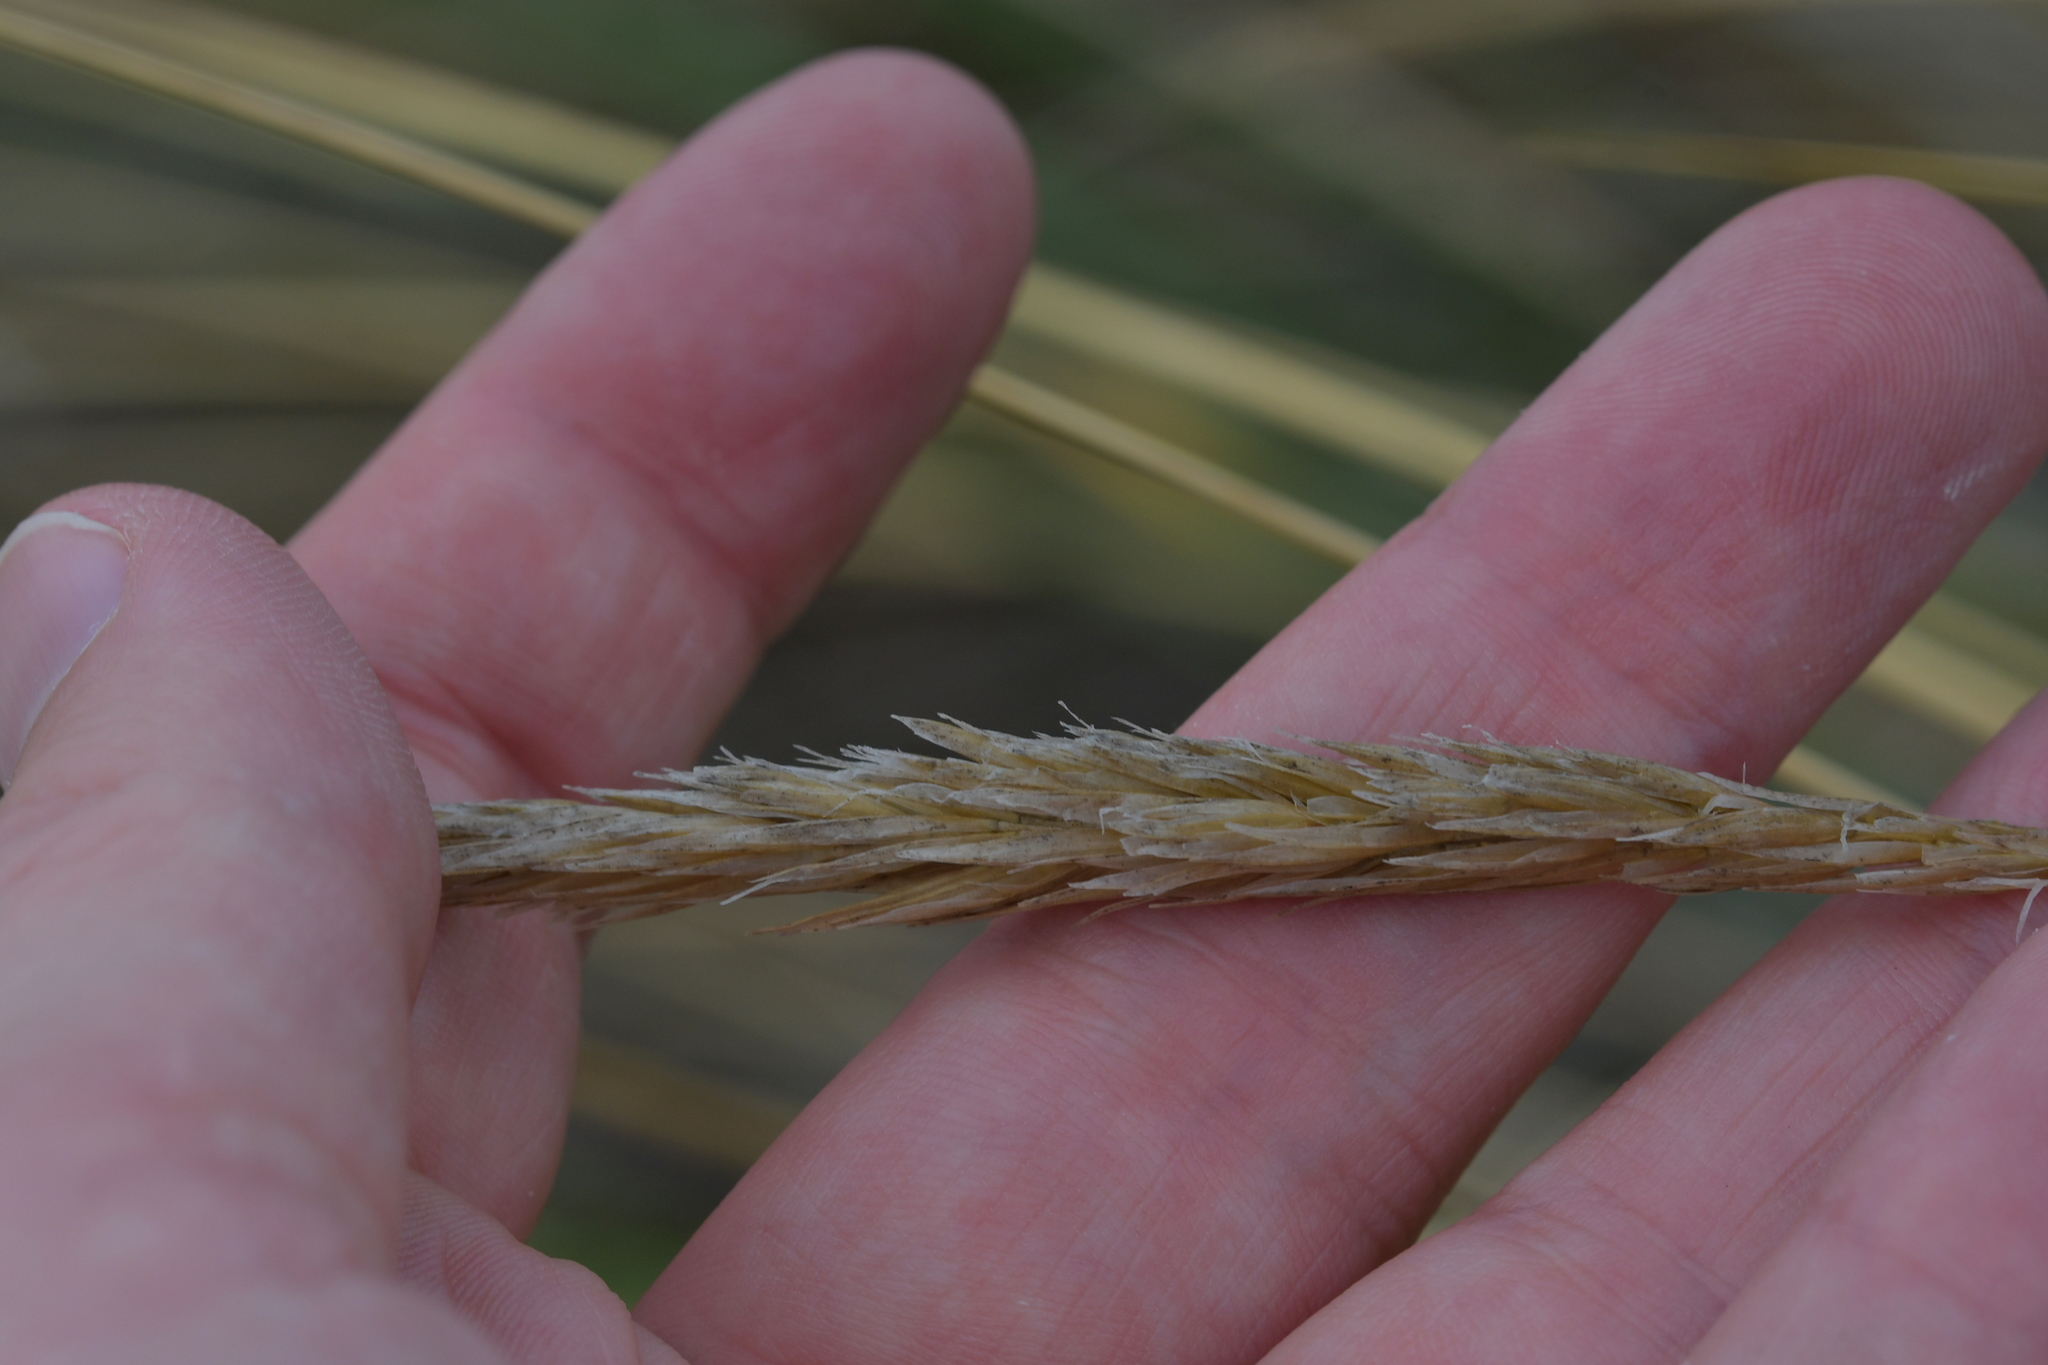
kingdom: Plantae
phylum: Tracheophyta
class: Liliopsida
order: Poales
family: Poaceae
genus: Calamagrostis
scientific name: Calamagrostis arenaria
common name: European beachgrass
